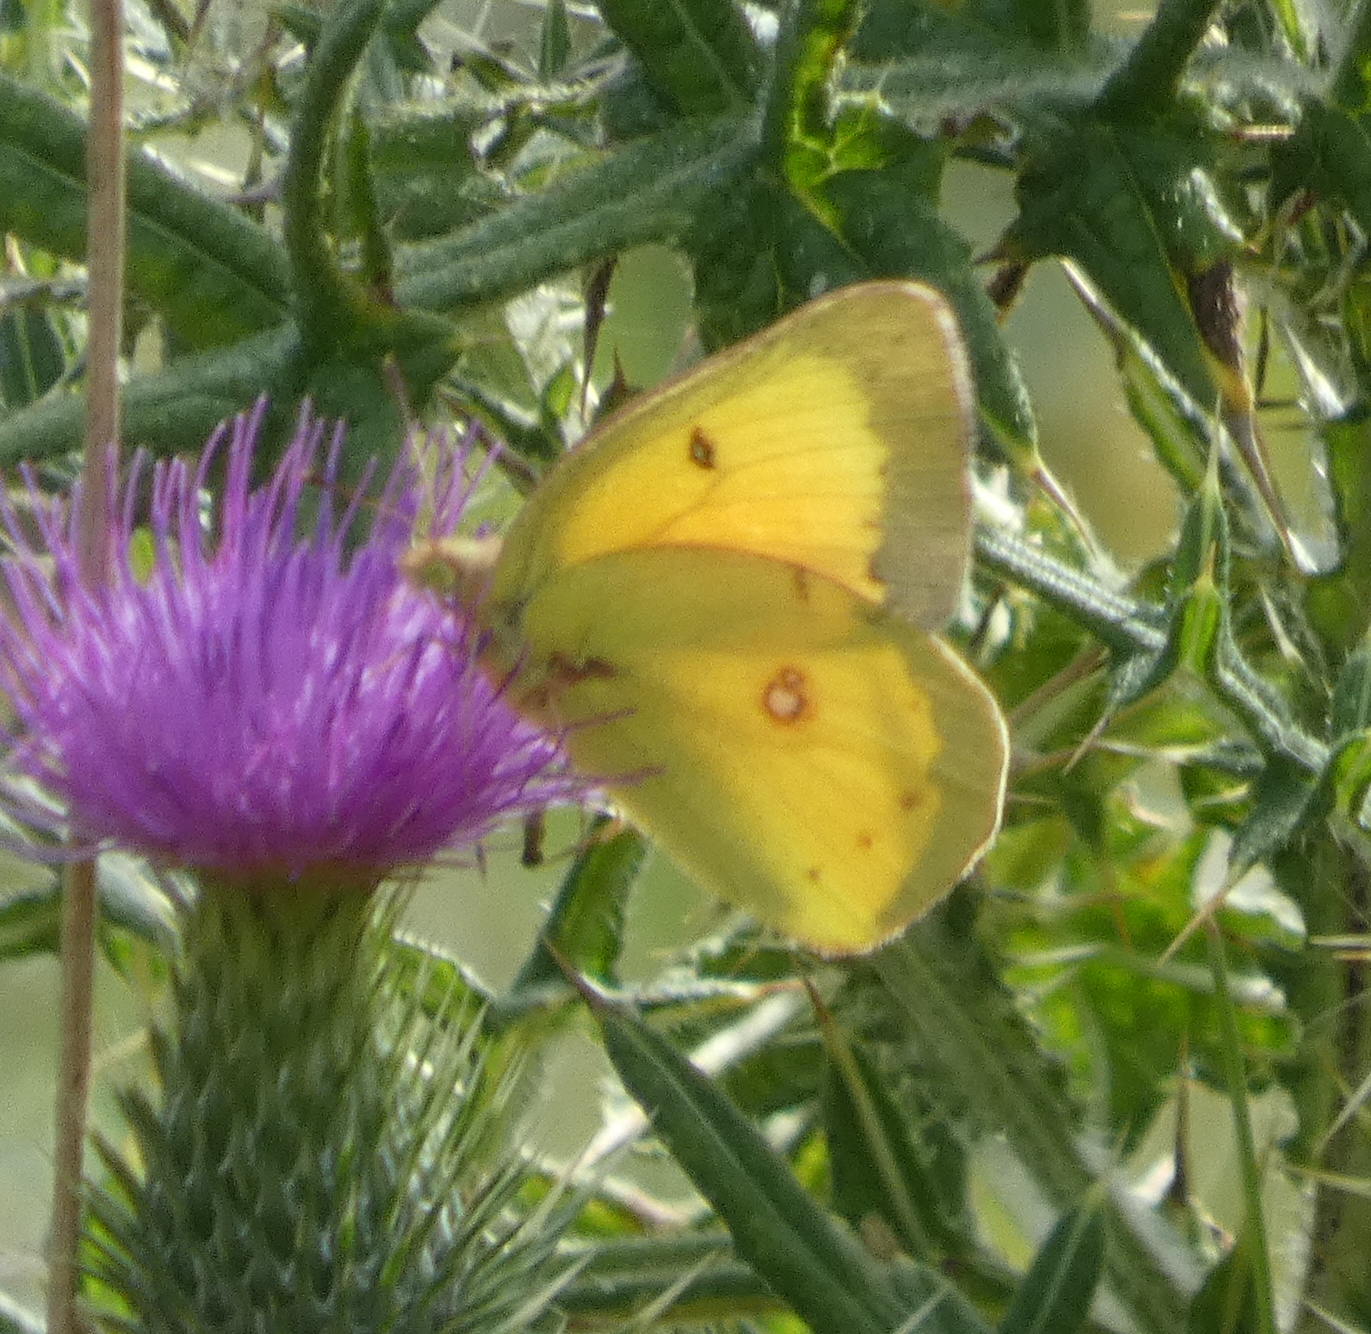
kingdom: Animalia
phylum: Arthropoda
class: Insecta
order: Lepidoptera
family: Pieridae
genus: Colias
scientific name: Colias eurytheme
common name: Alfalfa butterfly
